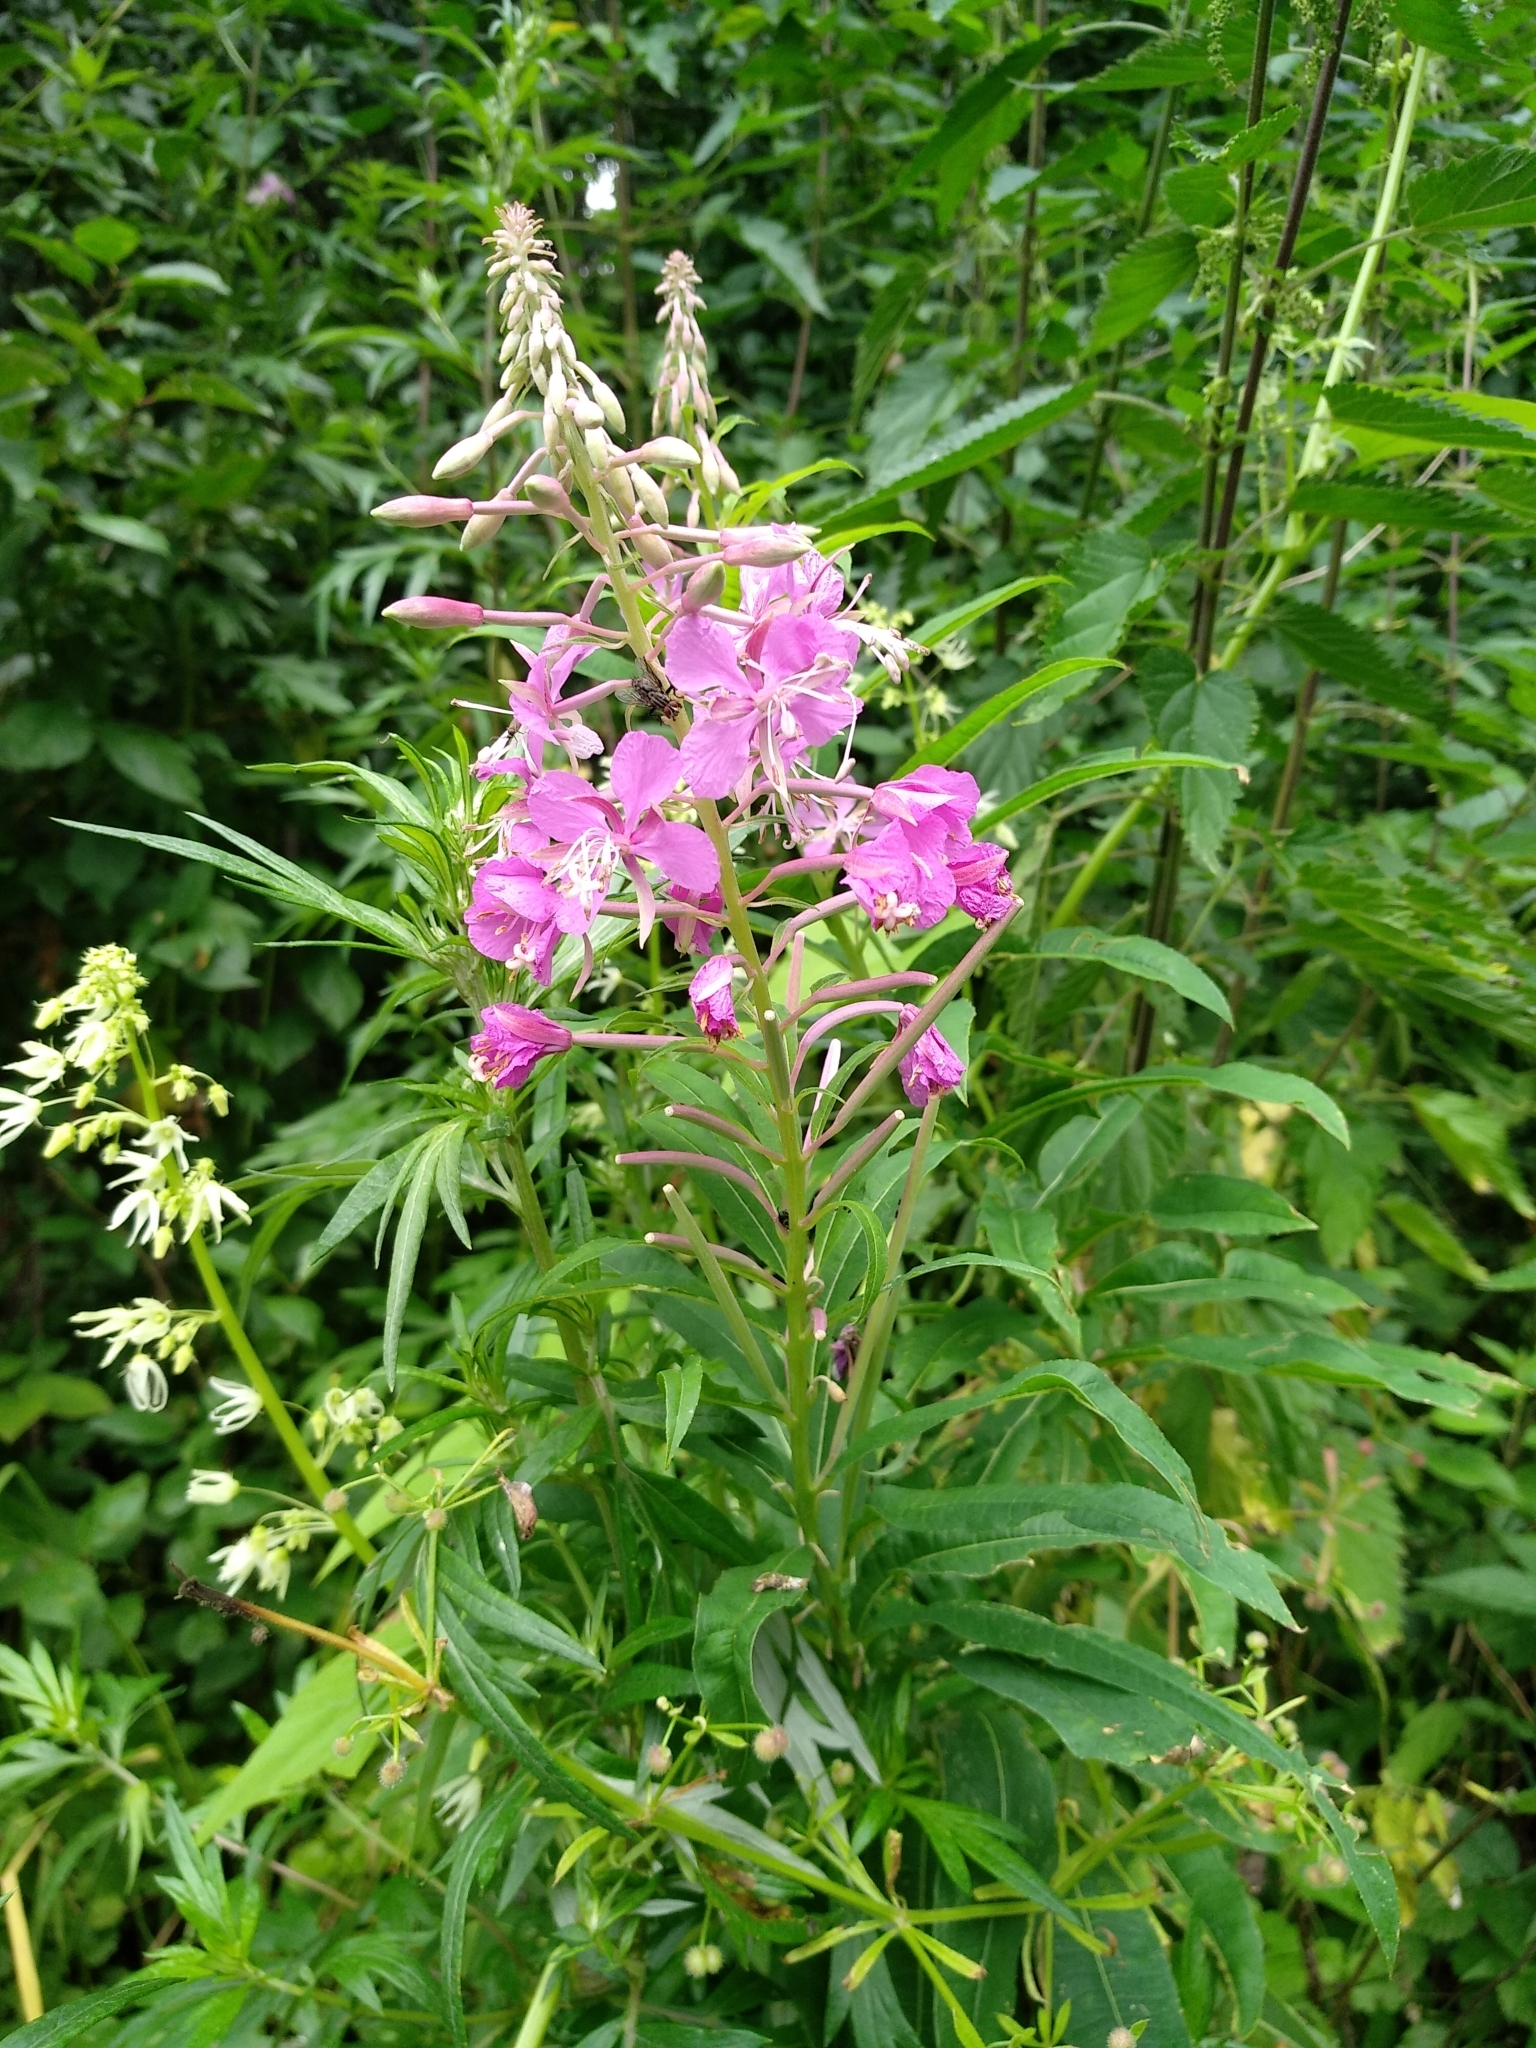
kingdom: Plantae
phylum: Tracheophyta
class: Magnoliopsida
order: Myrtales
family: Onagraceae
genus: Chamaenerion
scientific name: Chamaenerion angustifolium
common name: Fireweed
